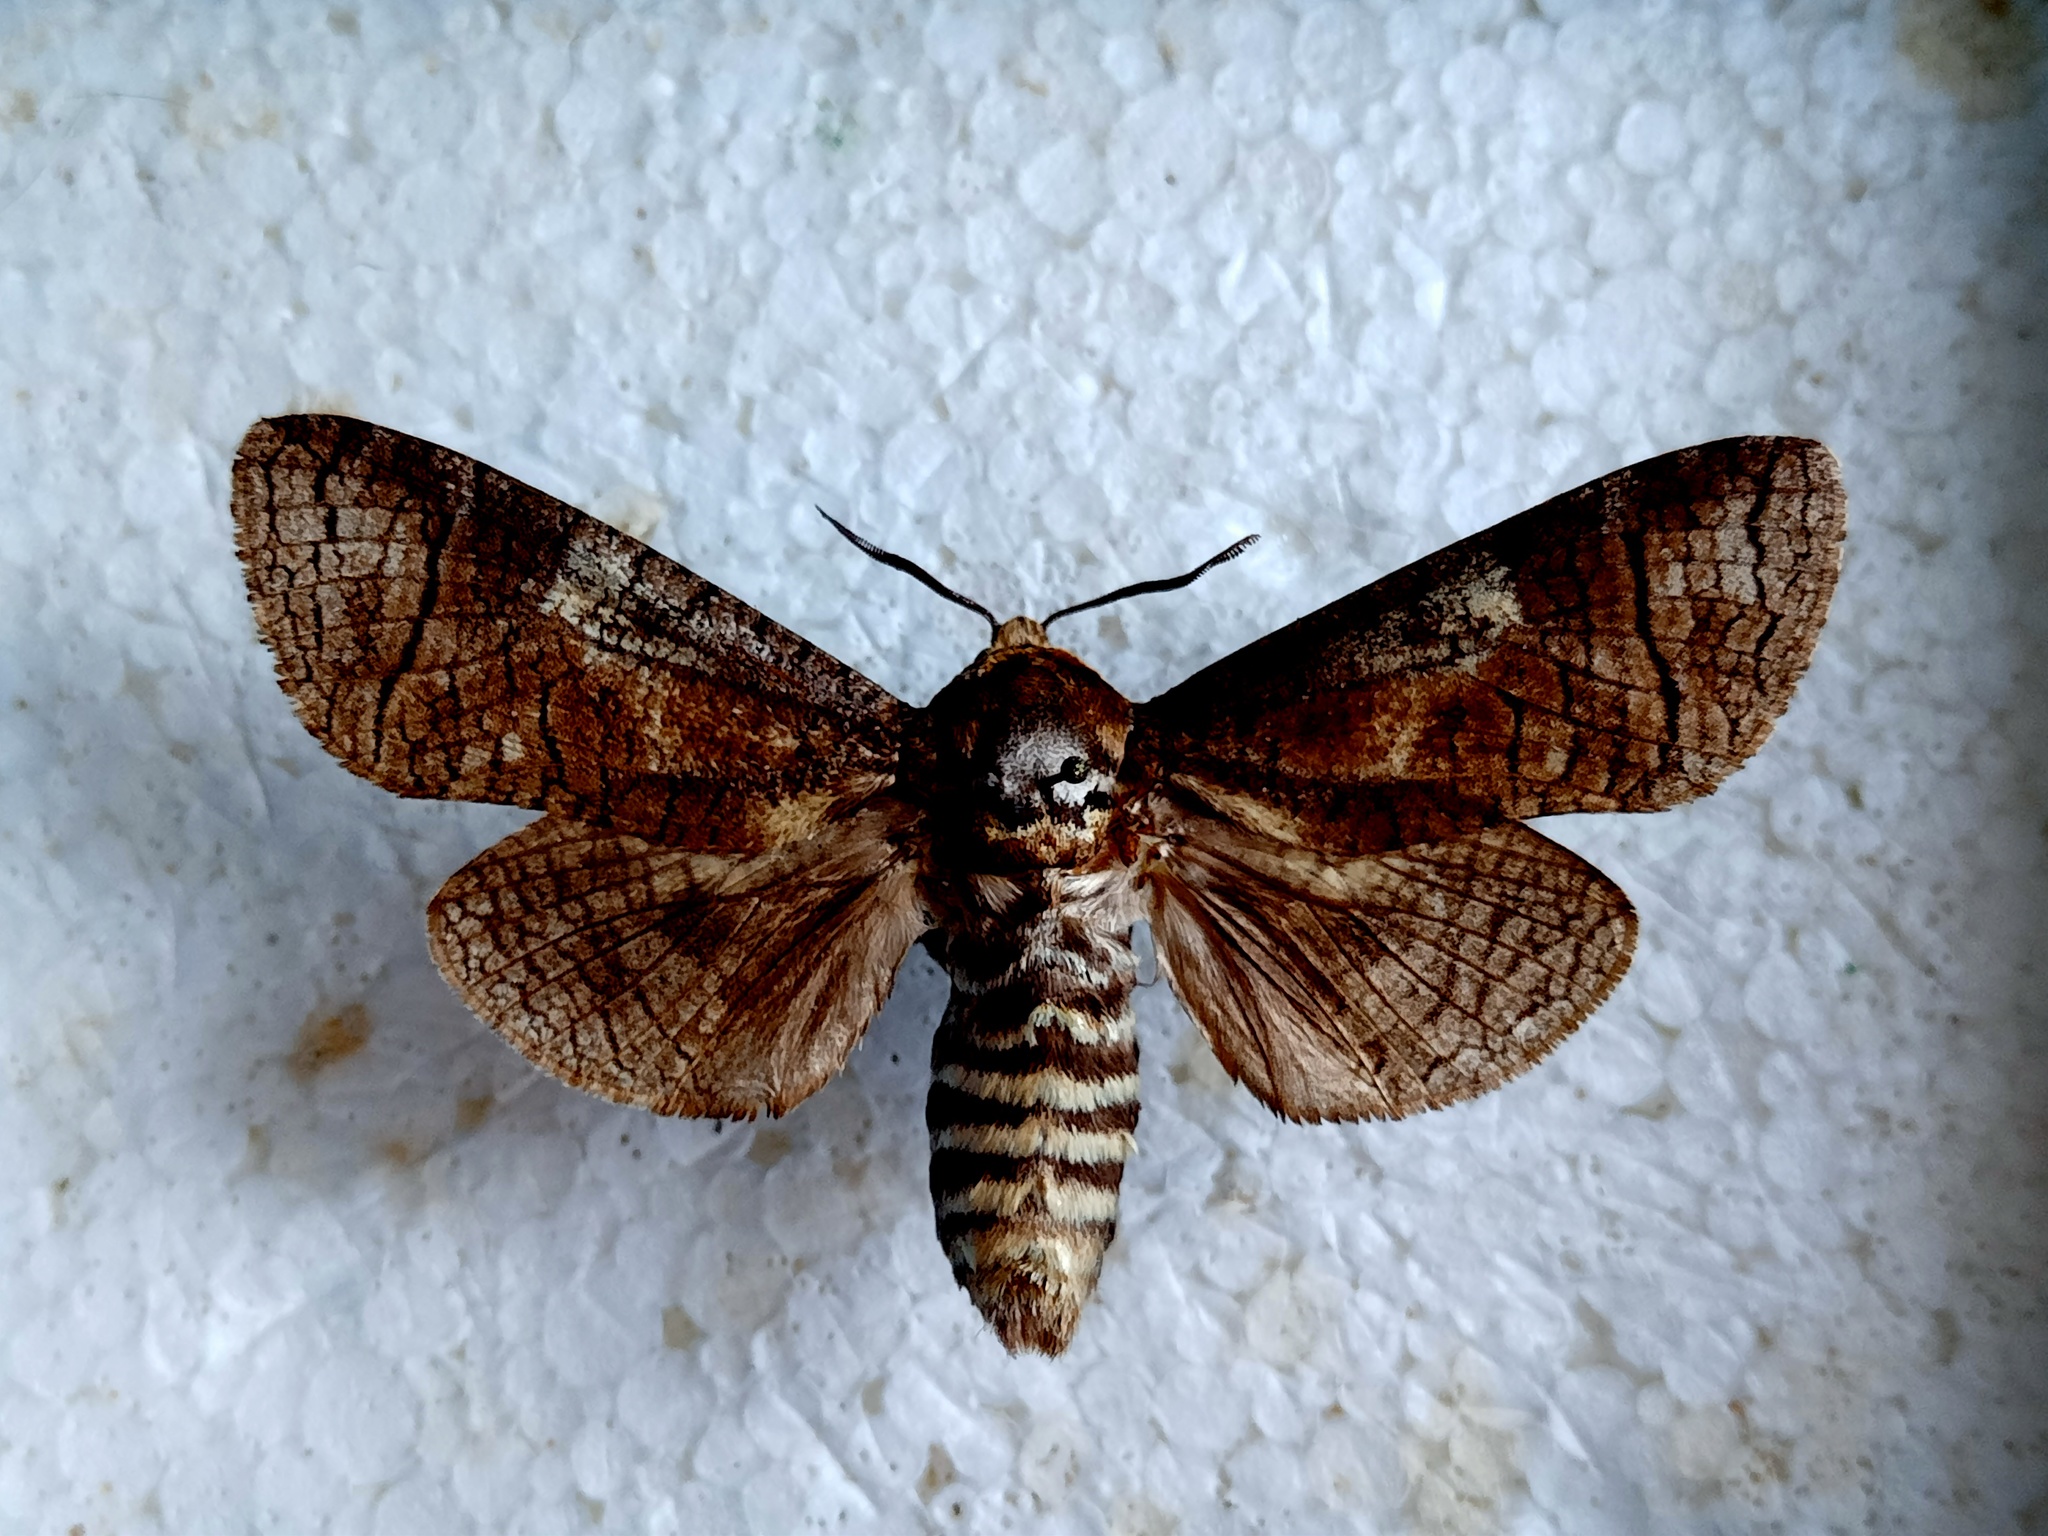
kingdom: Animalia
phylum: Arthropoda
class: Insecta
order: Lepidoptera
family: Cossidae
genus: Cossus
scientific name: Cossus cossus
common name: Goat moth
